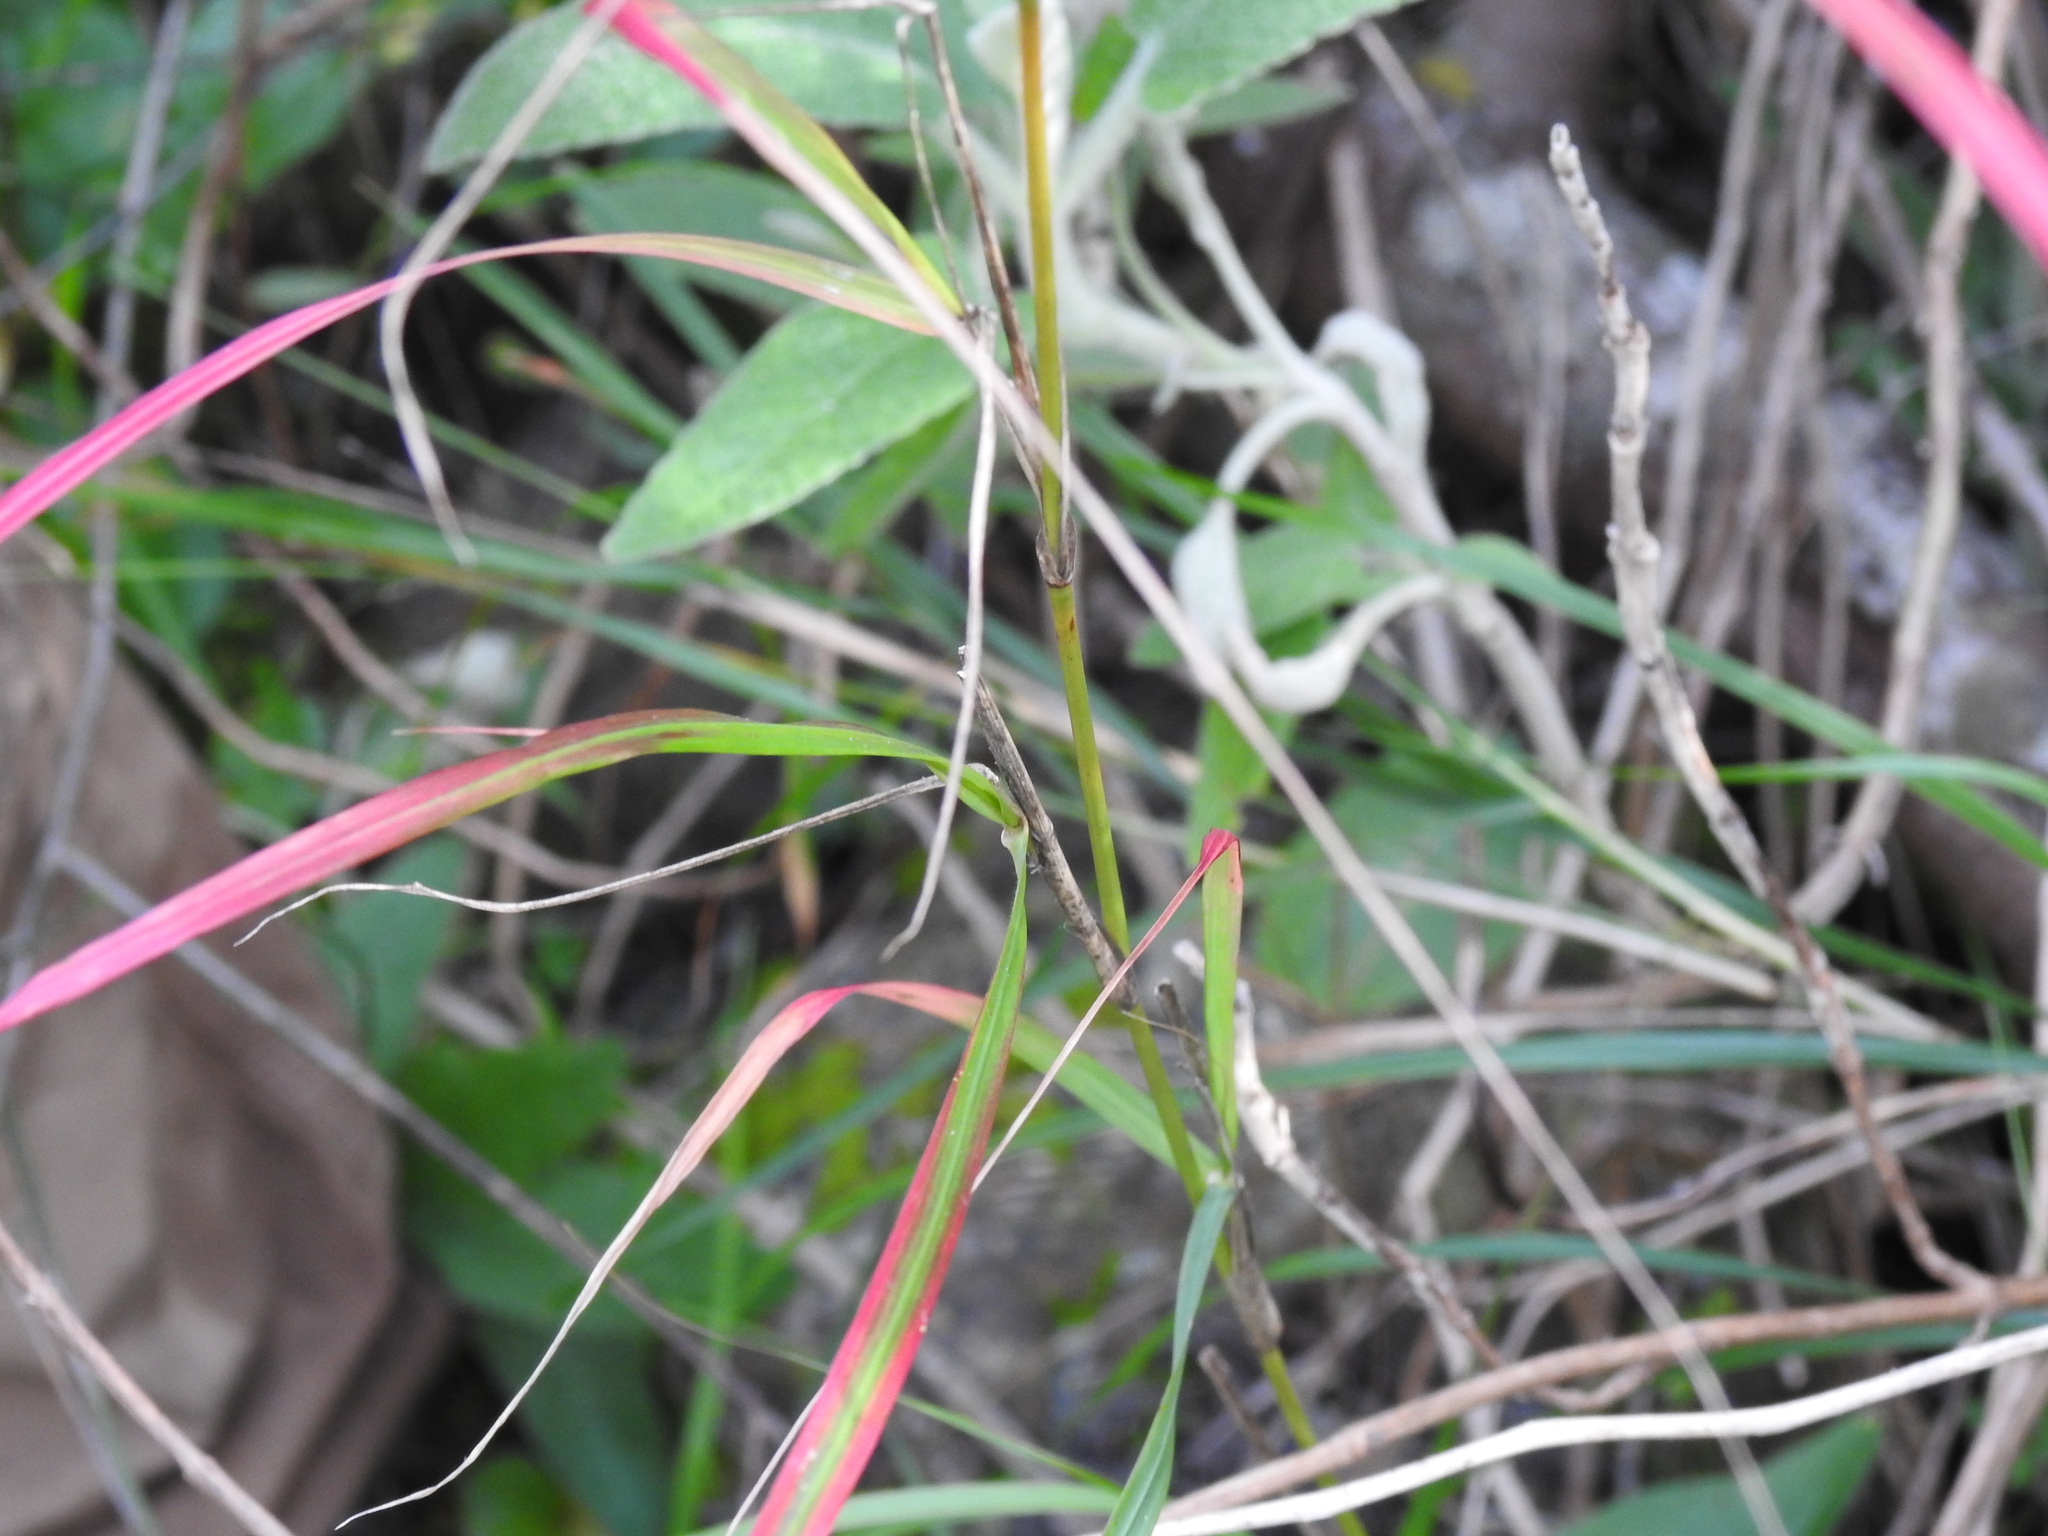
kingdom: Plantae
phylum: Tracheophyta
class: Liliopsida
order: Poales
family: Poaceae
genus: Oloptum
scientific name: Oloptum thomasii
